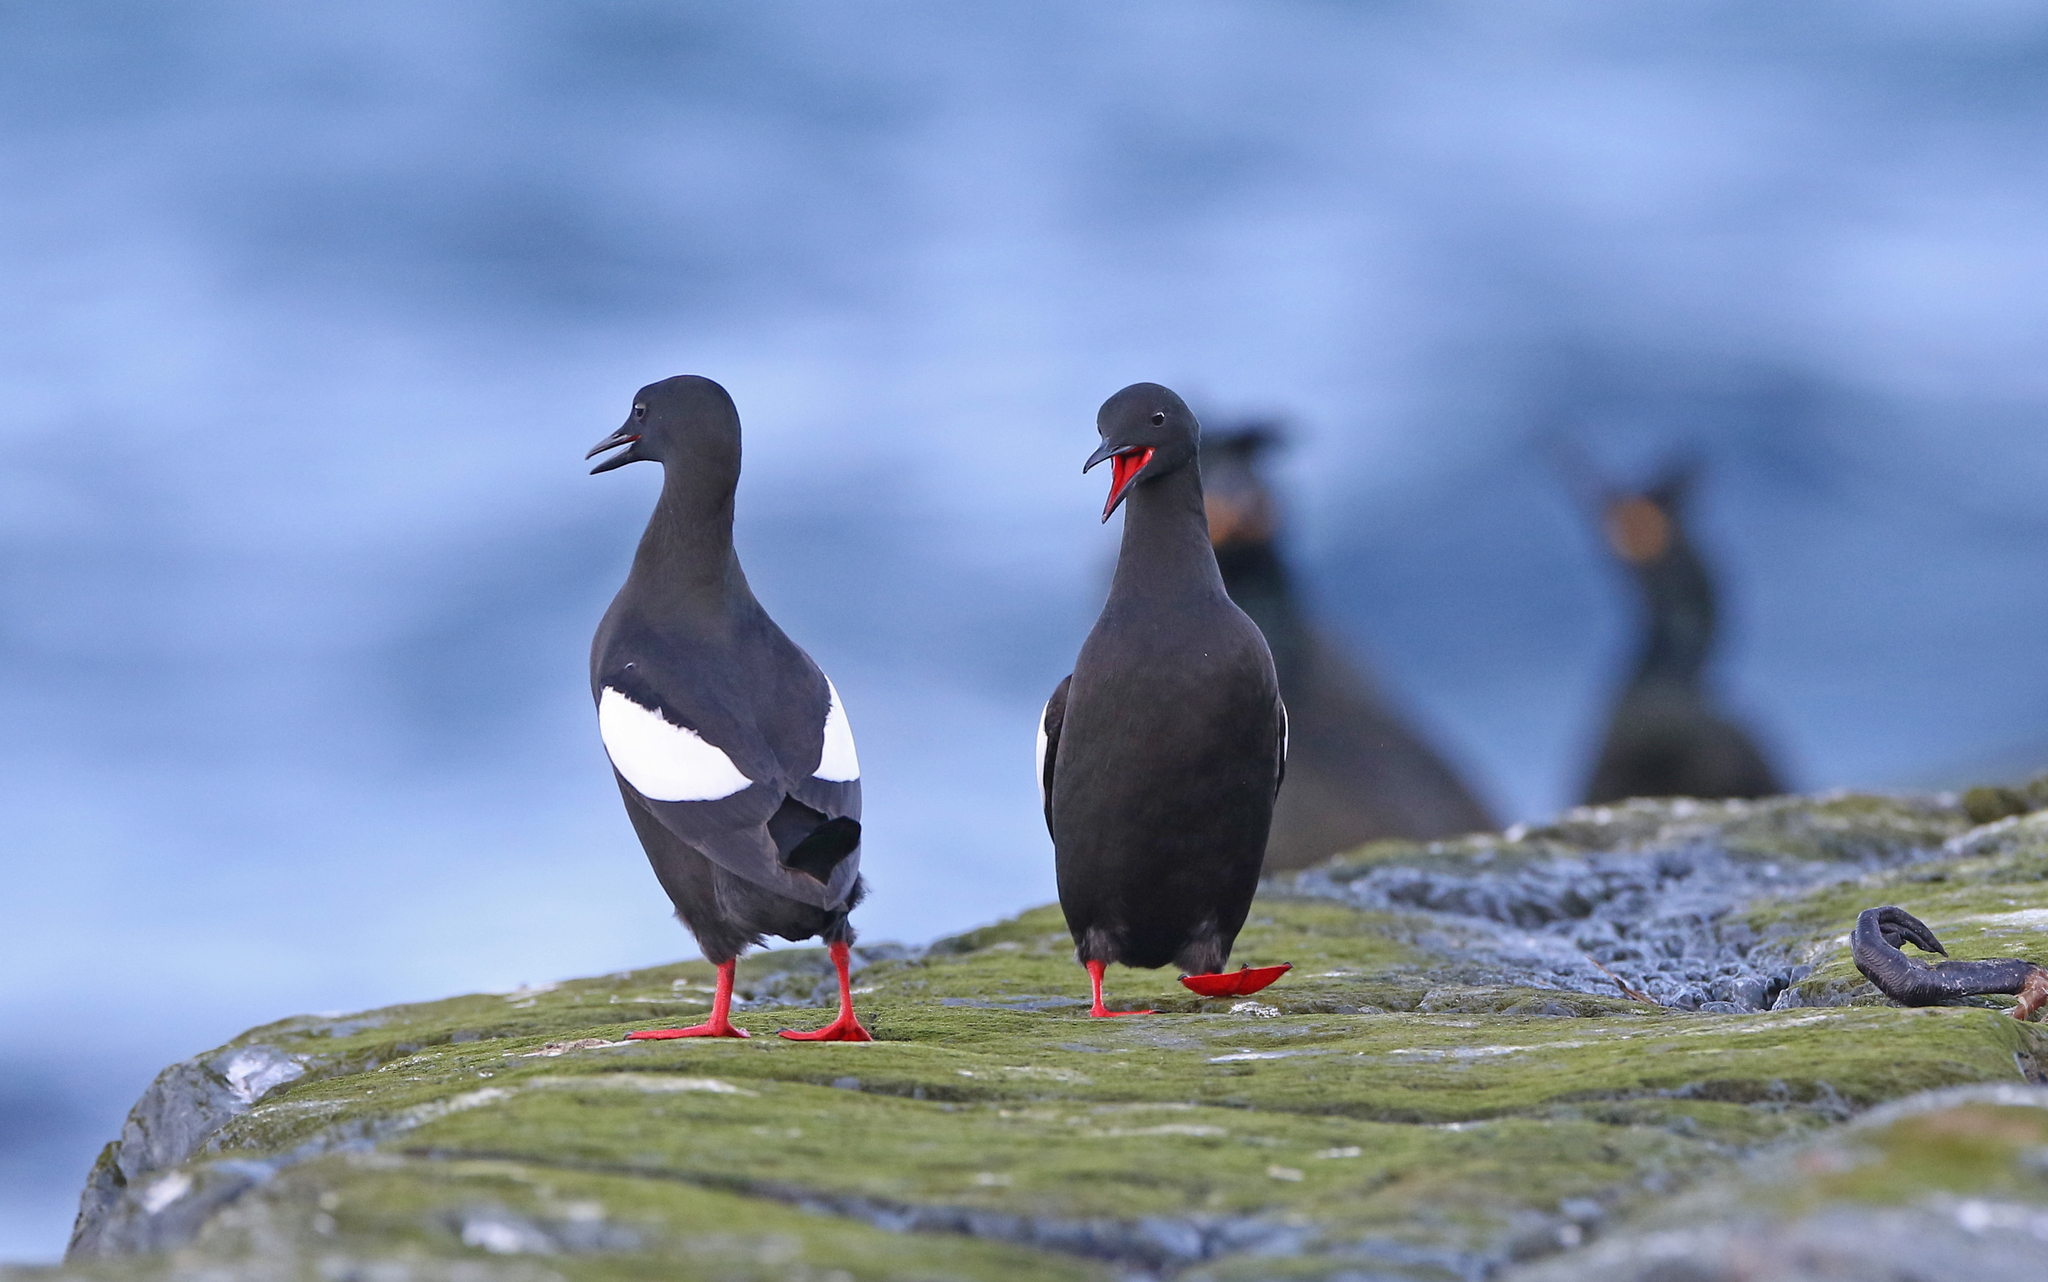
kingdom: Animalia
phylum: Chordata
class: Aves
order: Charadriiformes
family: Alcidae
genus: Cepphus
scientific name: Cepphus grylle
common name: Black guillemot
